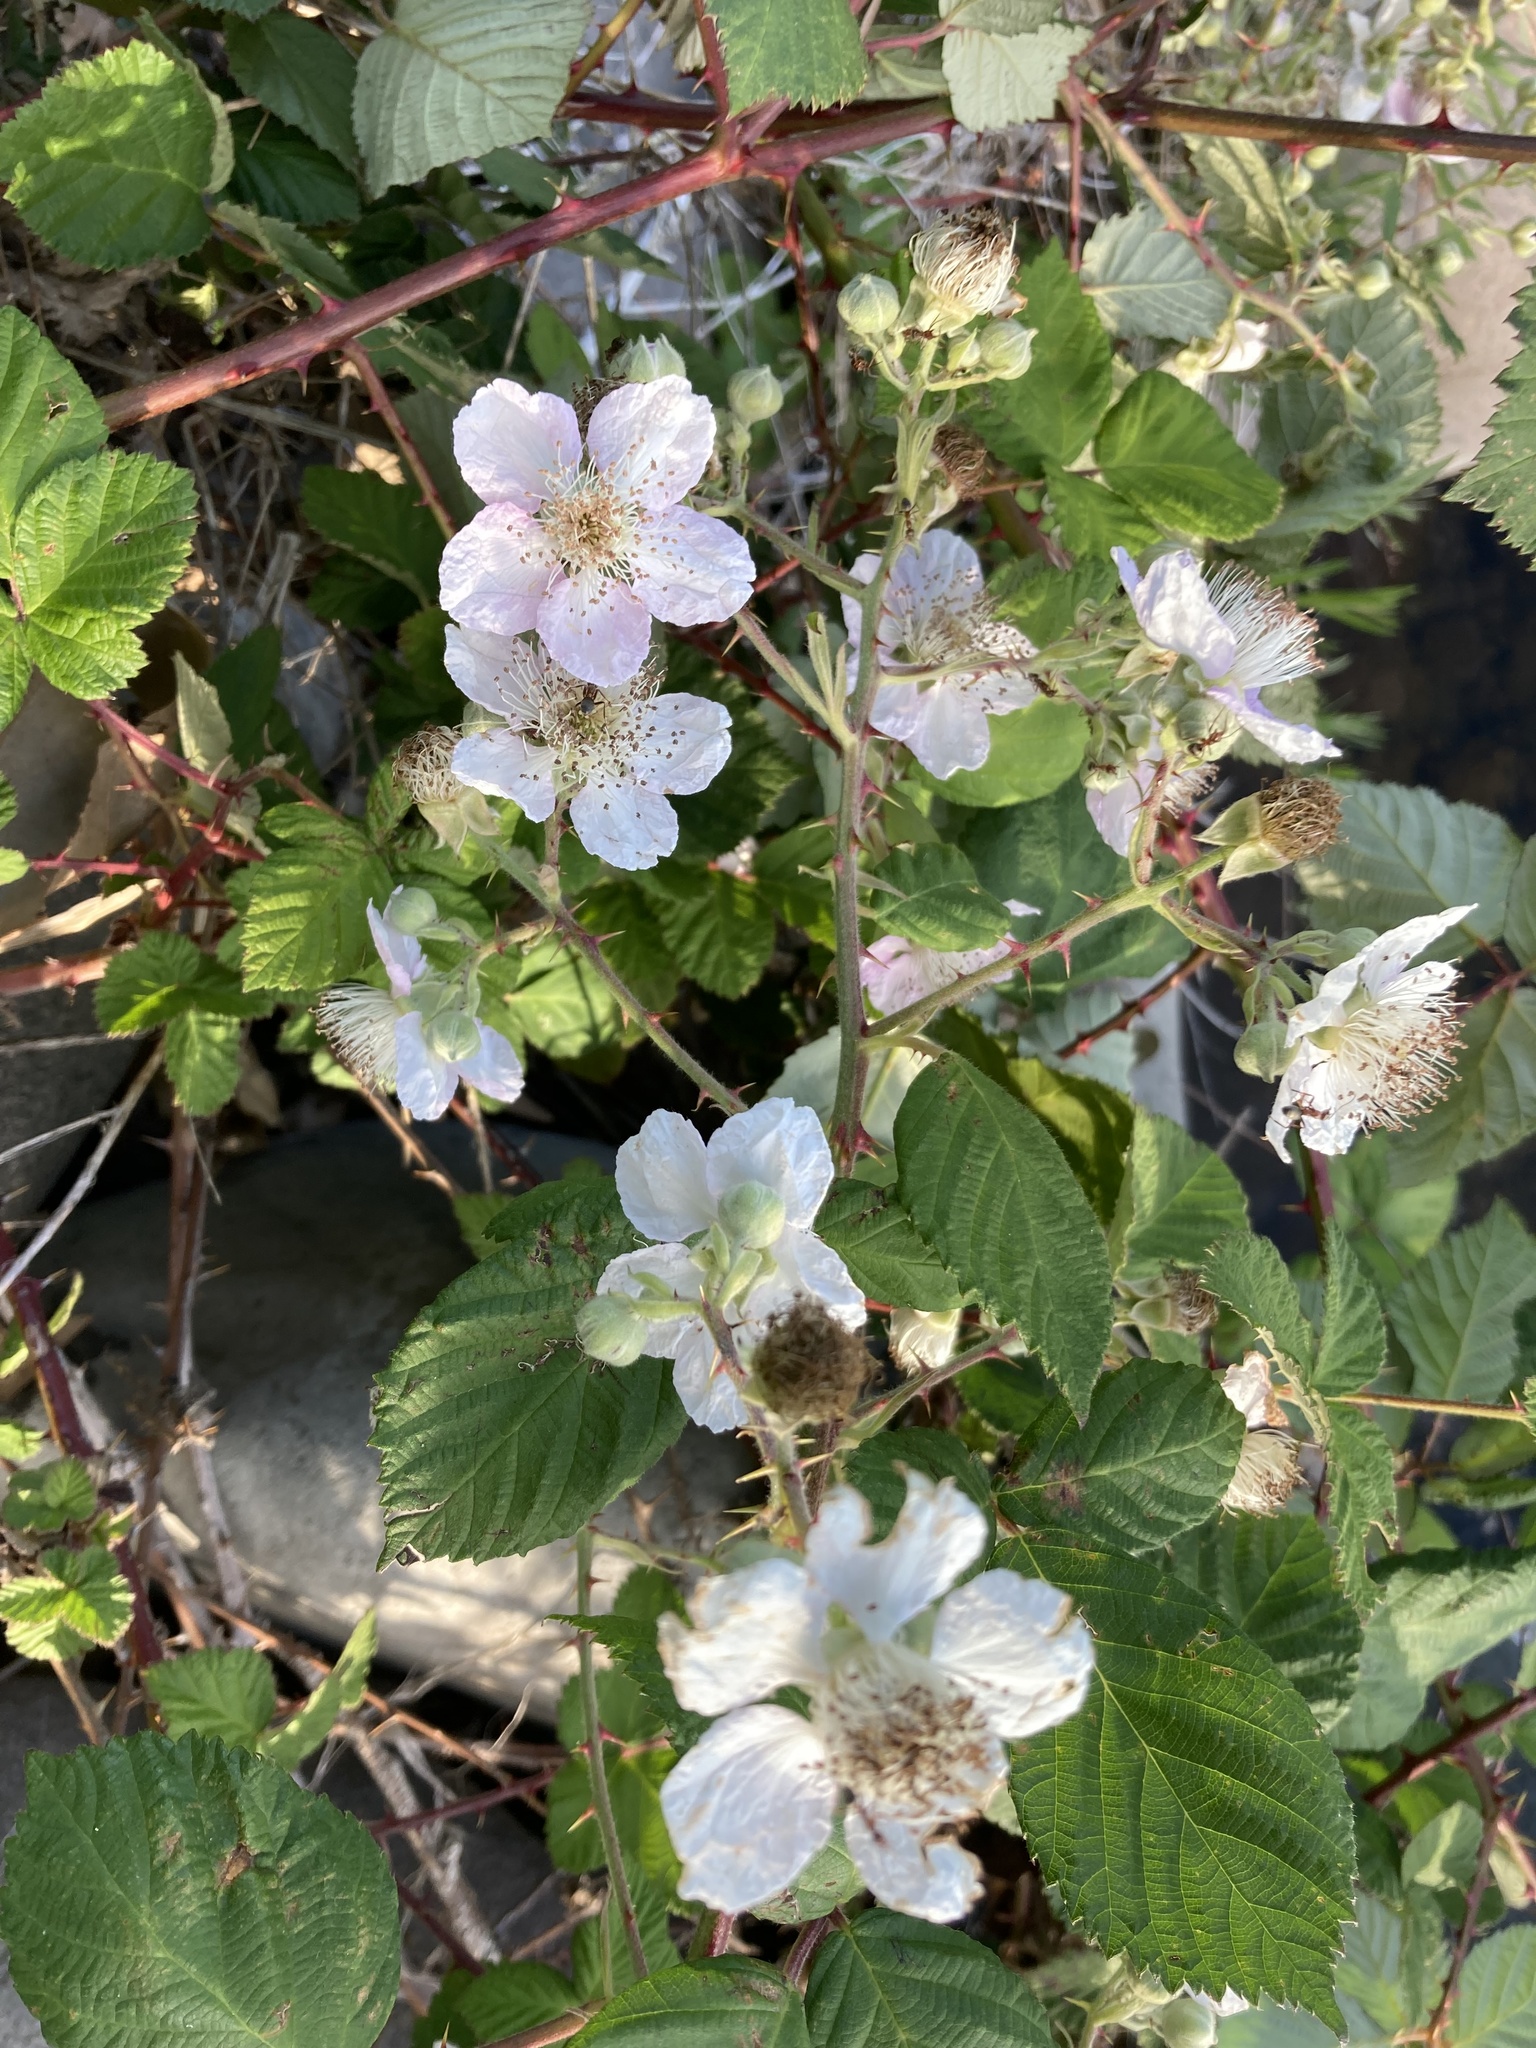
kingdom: Plantae
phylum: Tracheophyta
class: Magnoliopsida
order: Rosales
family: Rosaceae
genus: Rubus
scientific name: Rubus armeniacus
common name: Himalayan blackberry
